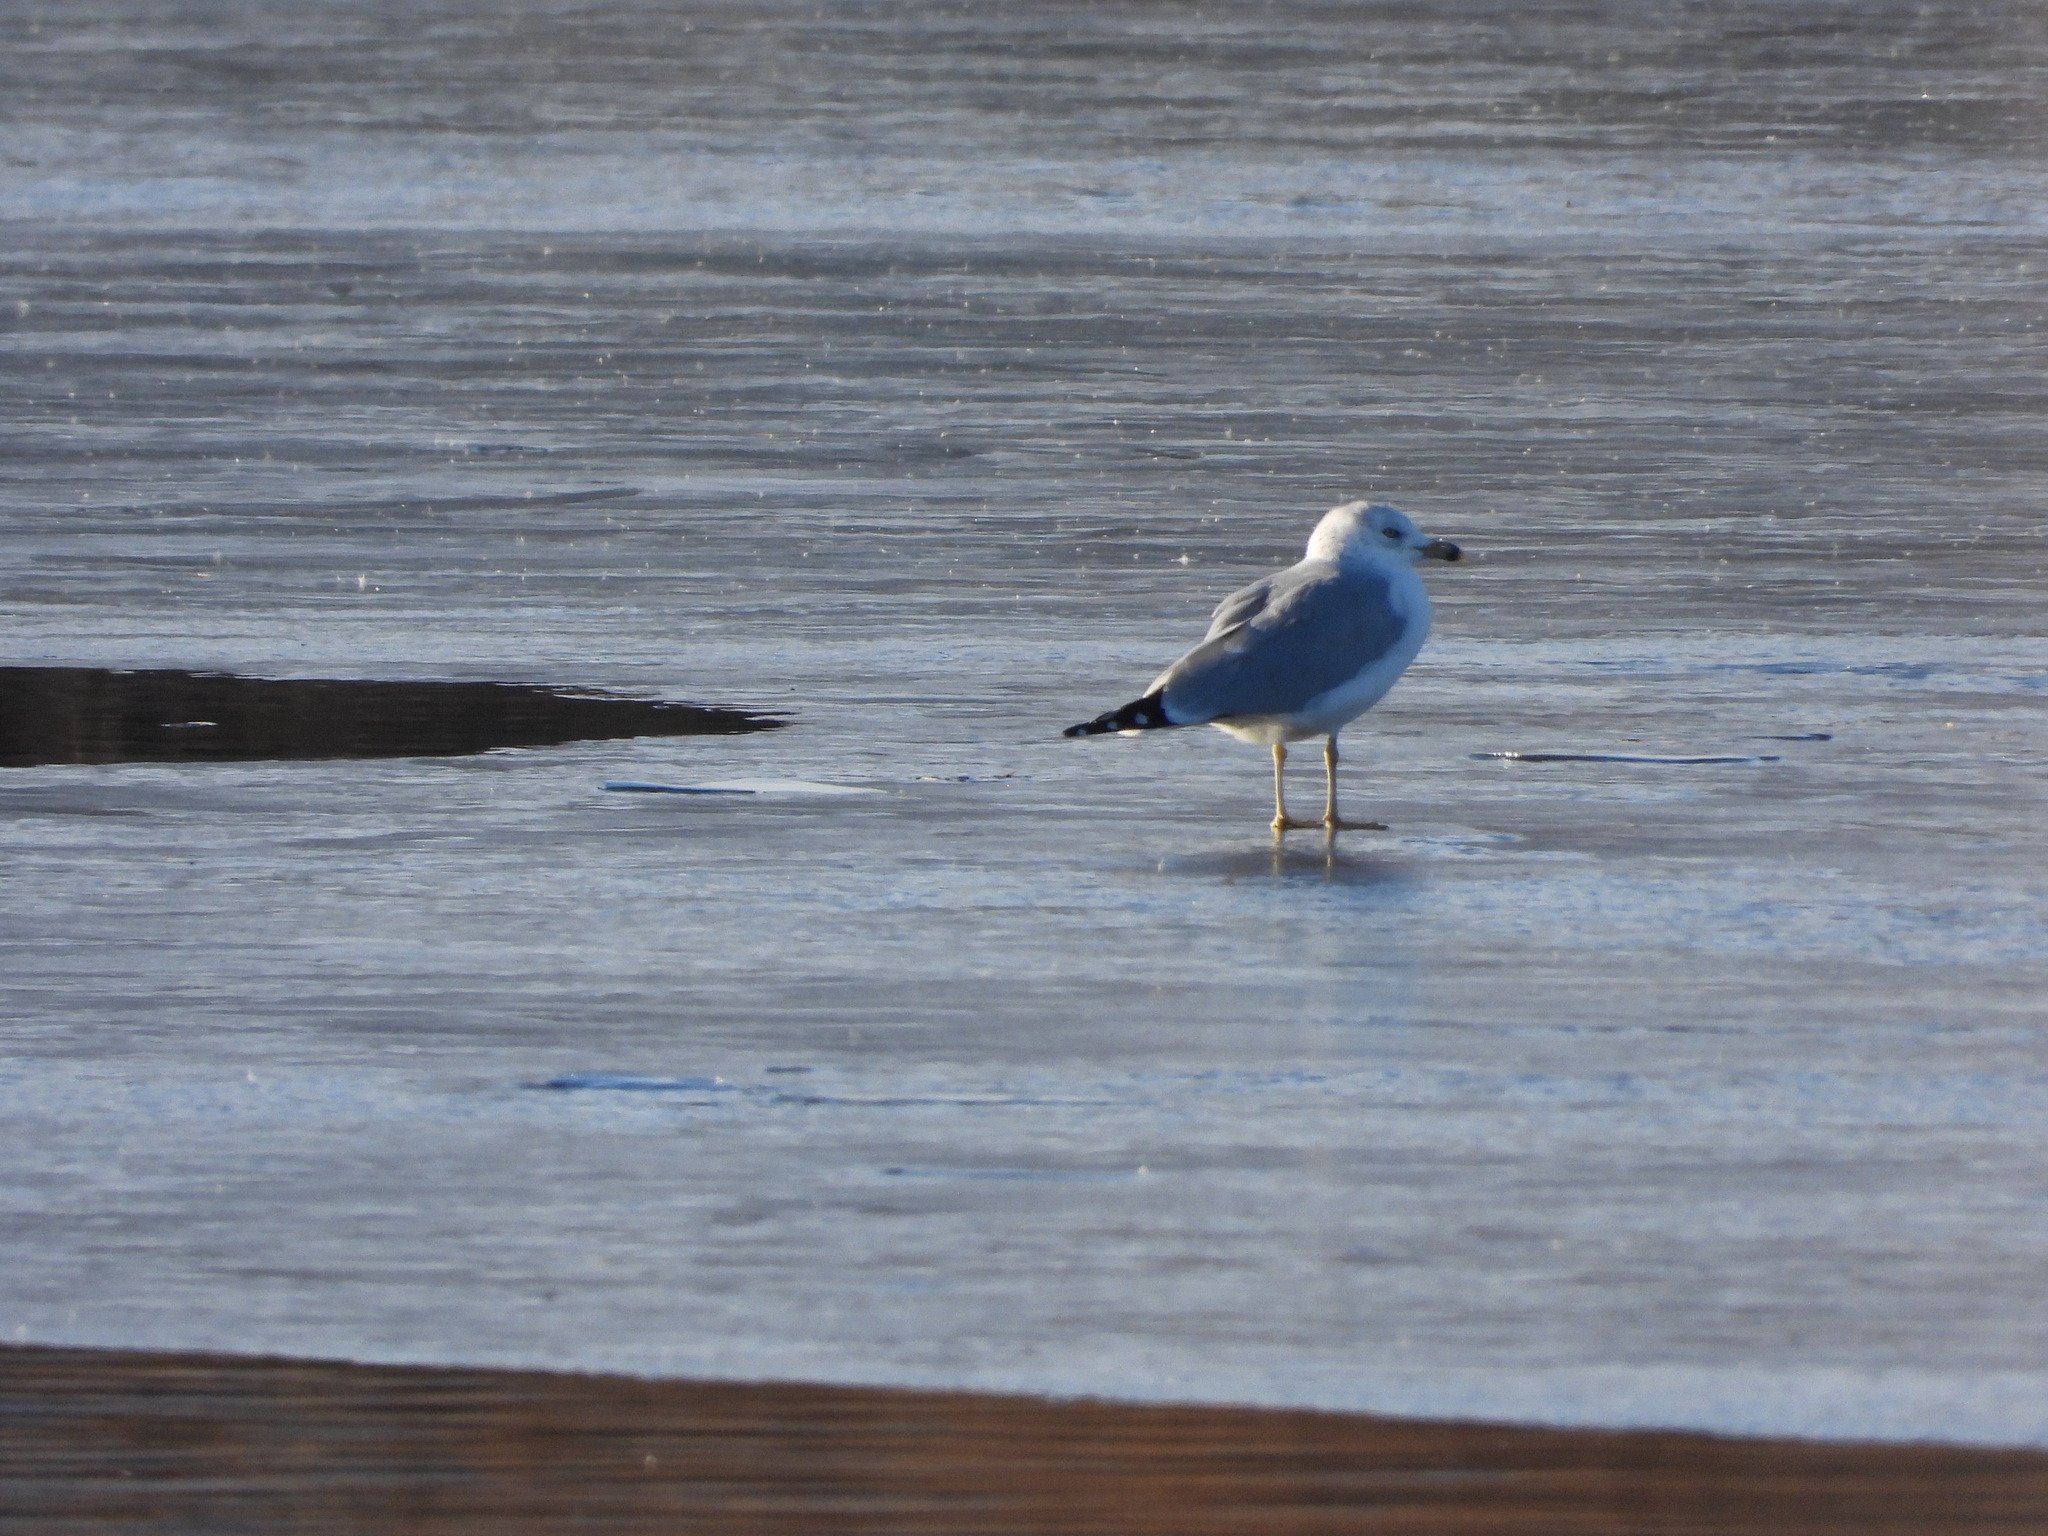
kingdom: Animalia
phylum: Chordata
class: Aves
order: Charadriiformes
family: Laridae
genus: Larus
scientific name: Larus delawarensis
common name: Ring-billed gull
